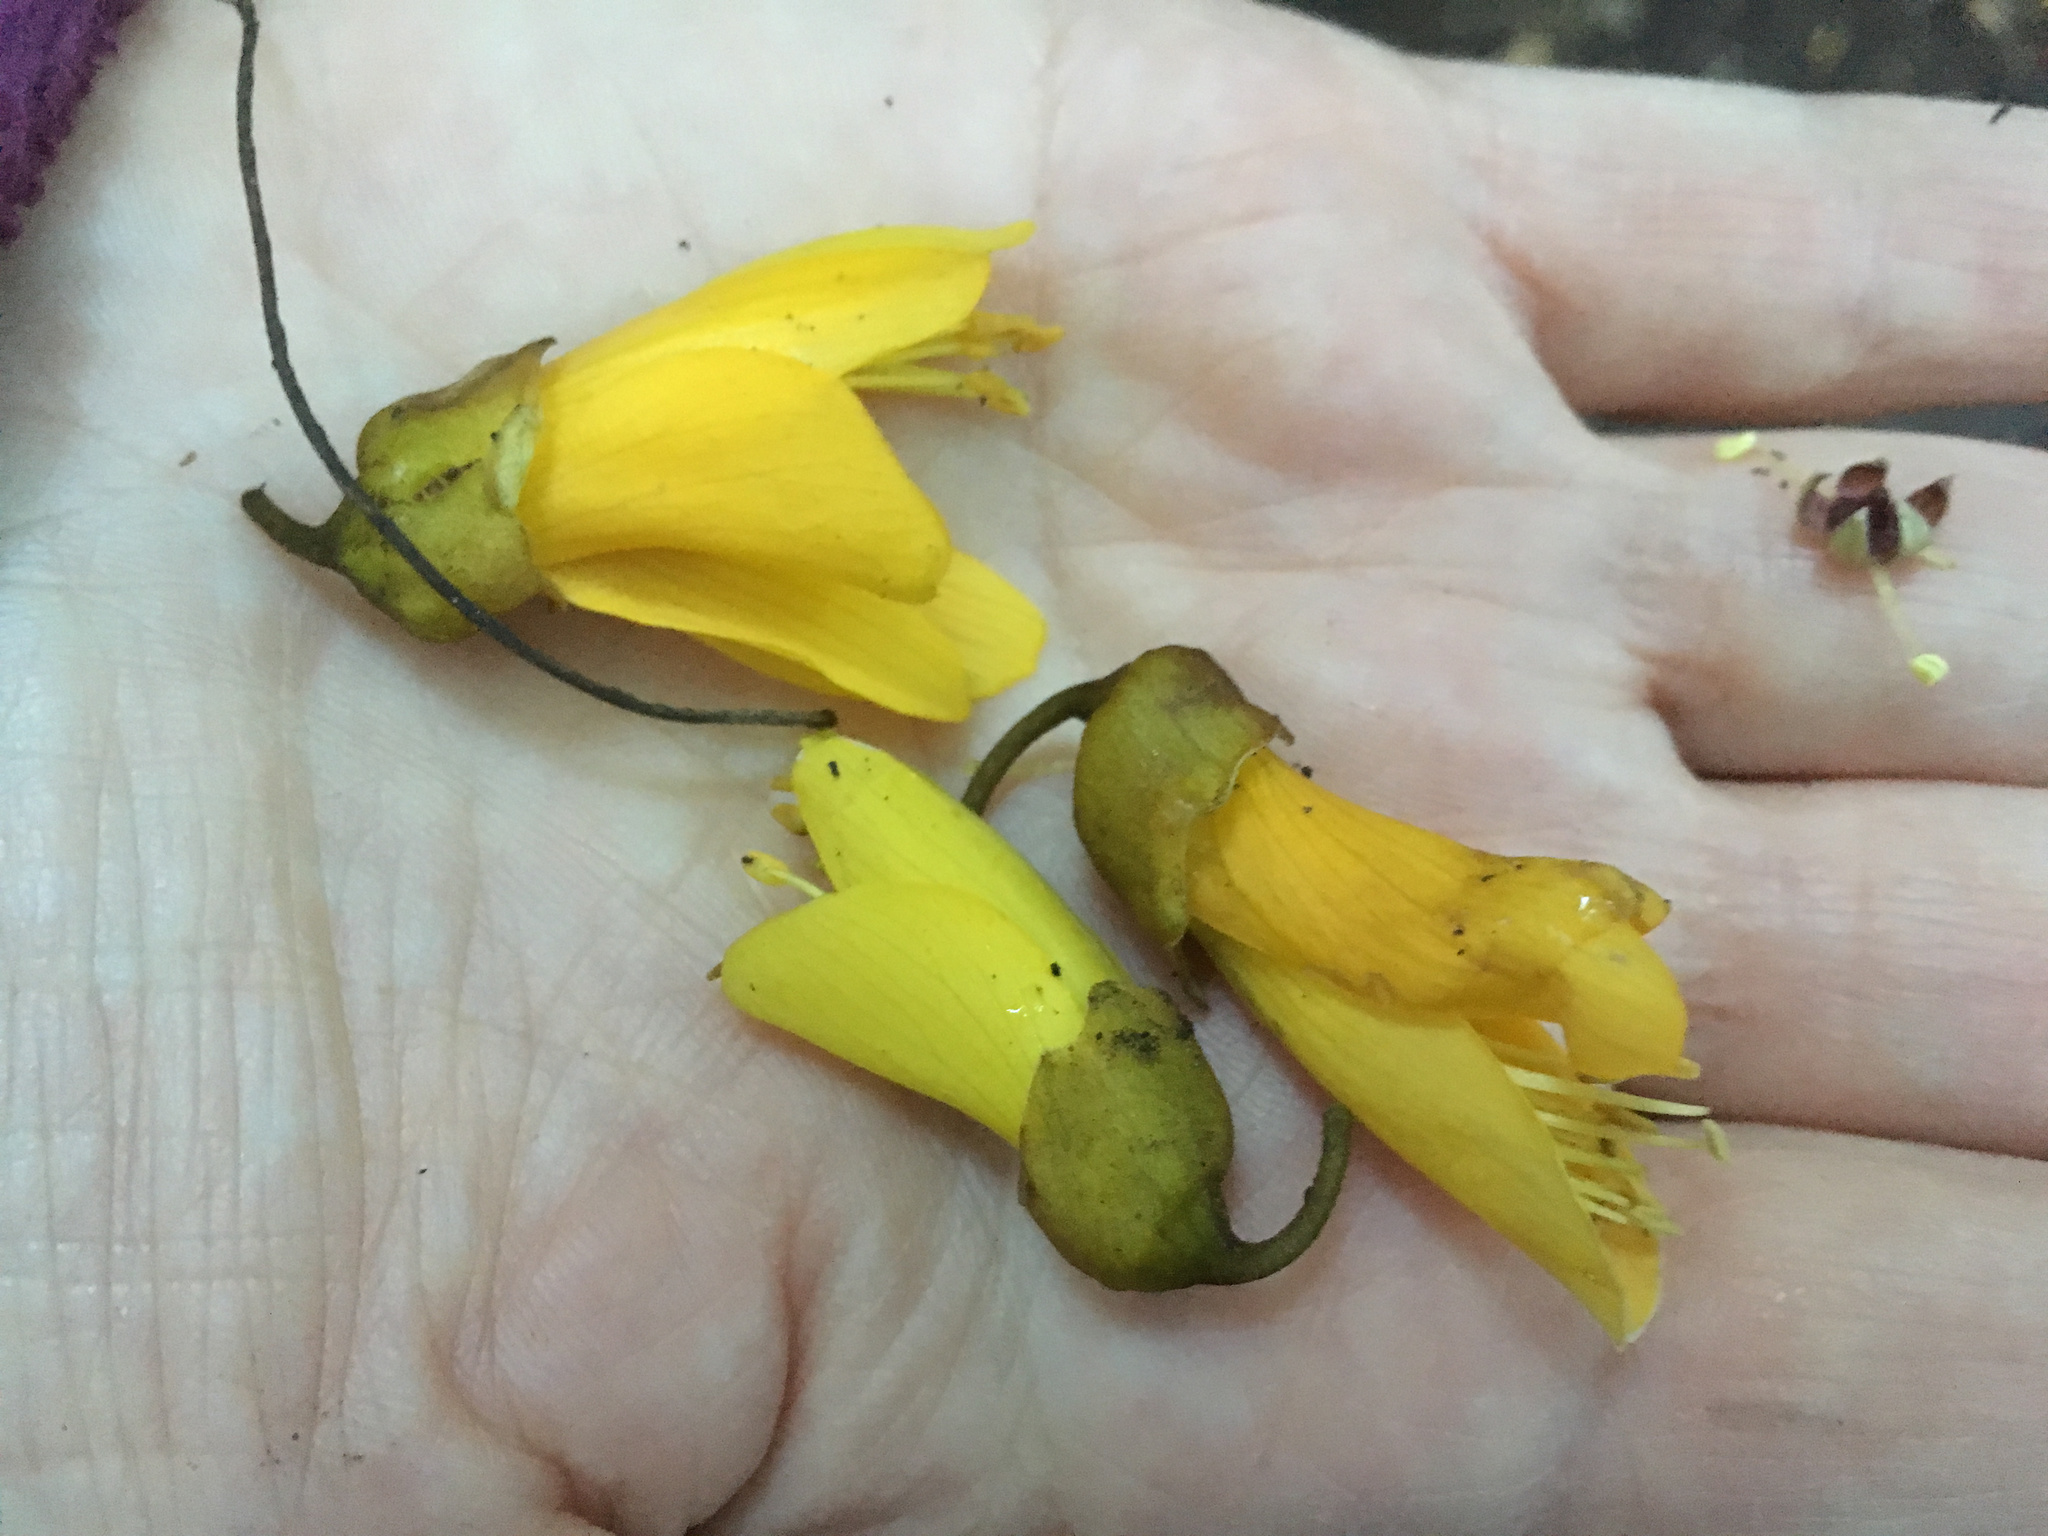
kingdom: Plantae
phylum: Tracheophyta
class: Magnoliopsida
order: Fabales
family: Fabaceae
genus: Sophora
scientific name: Sophora microphylla
